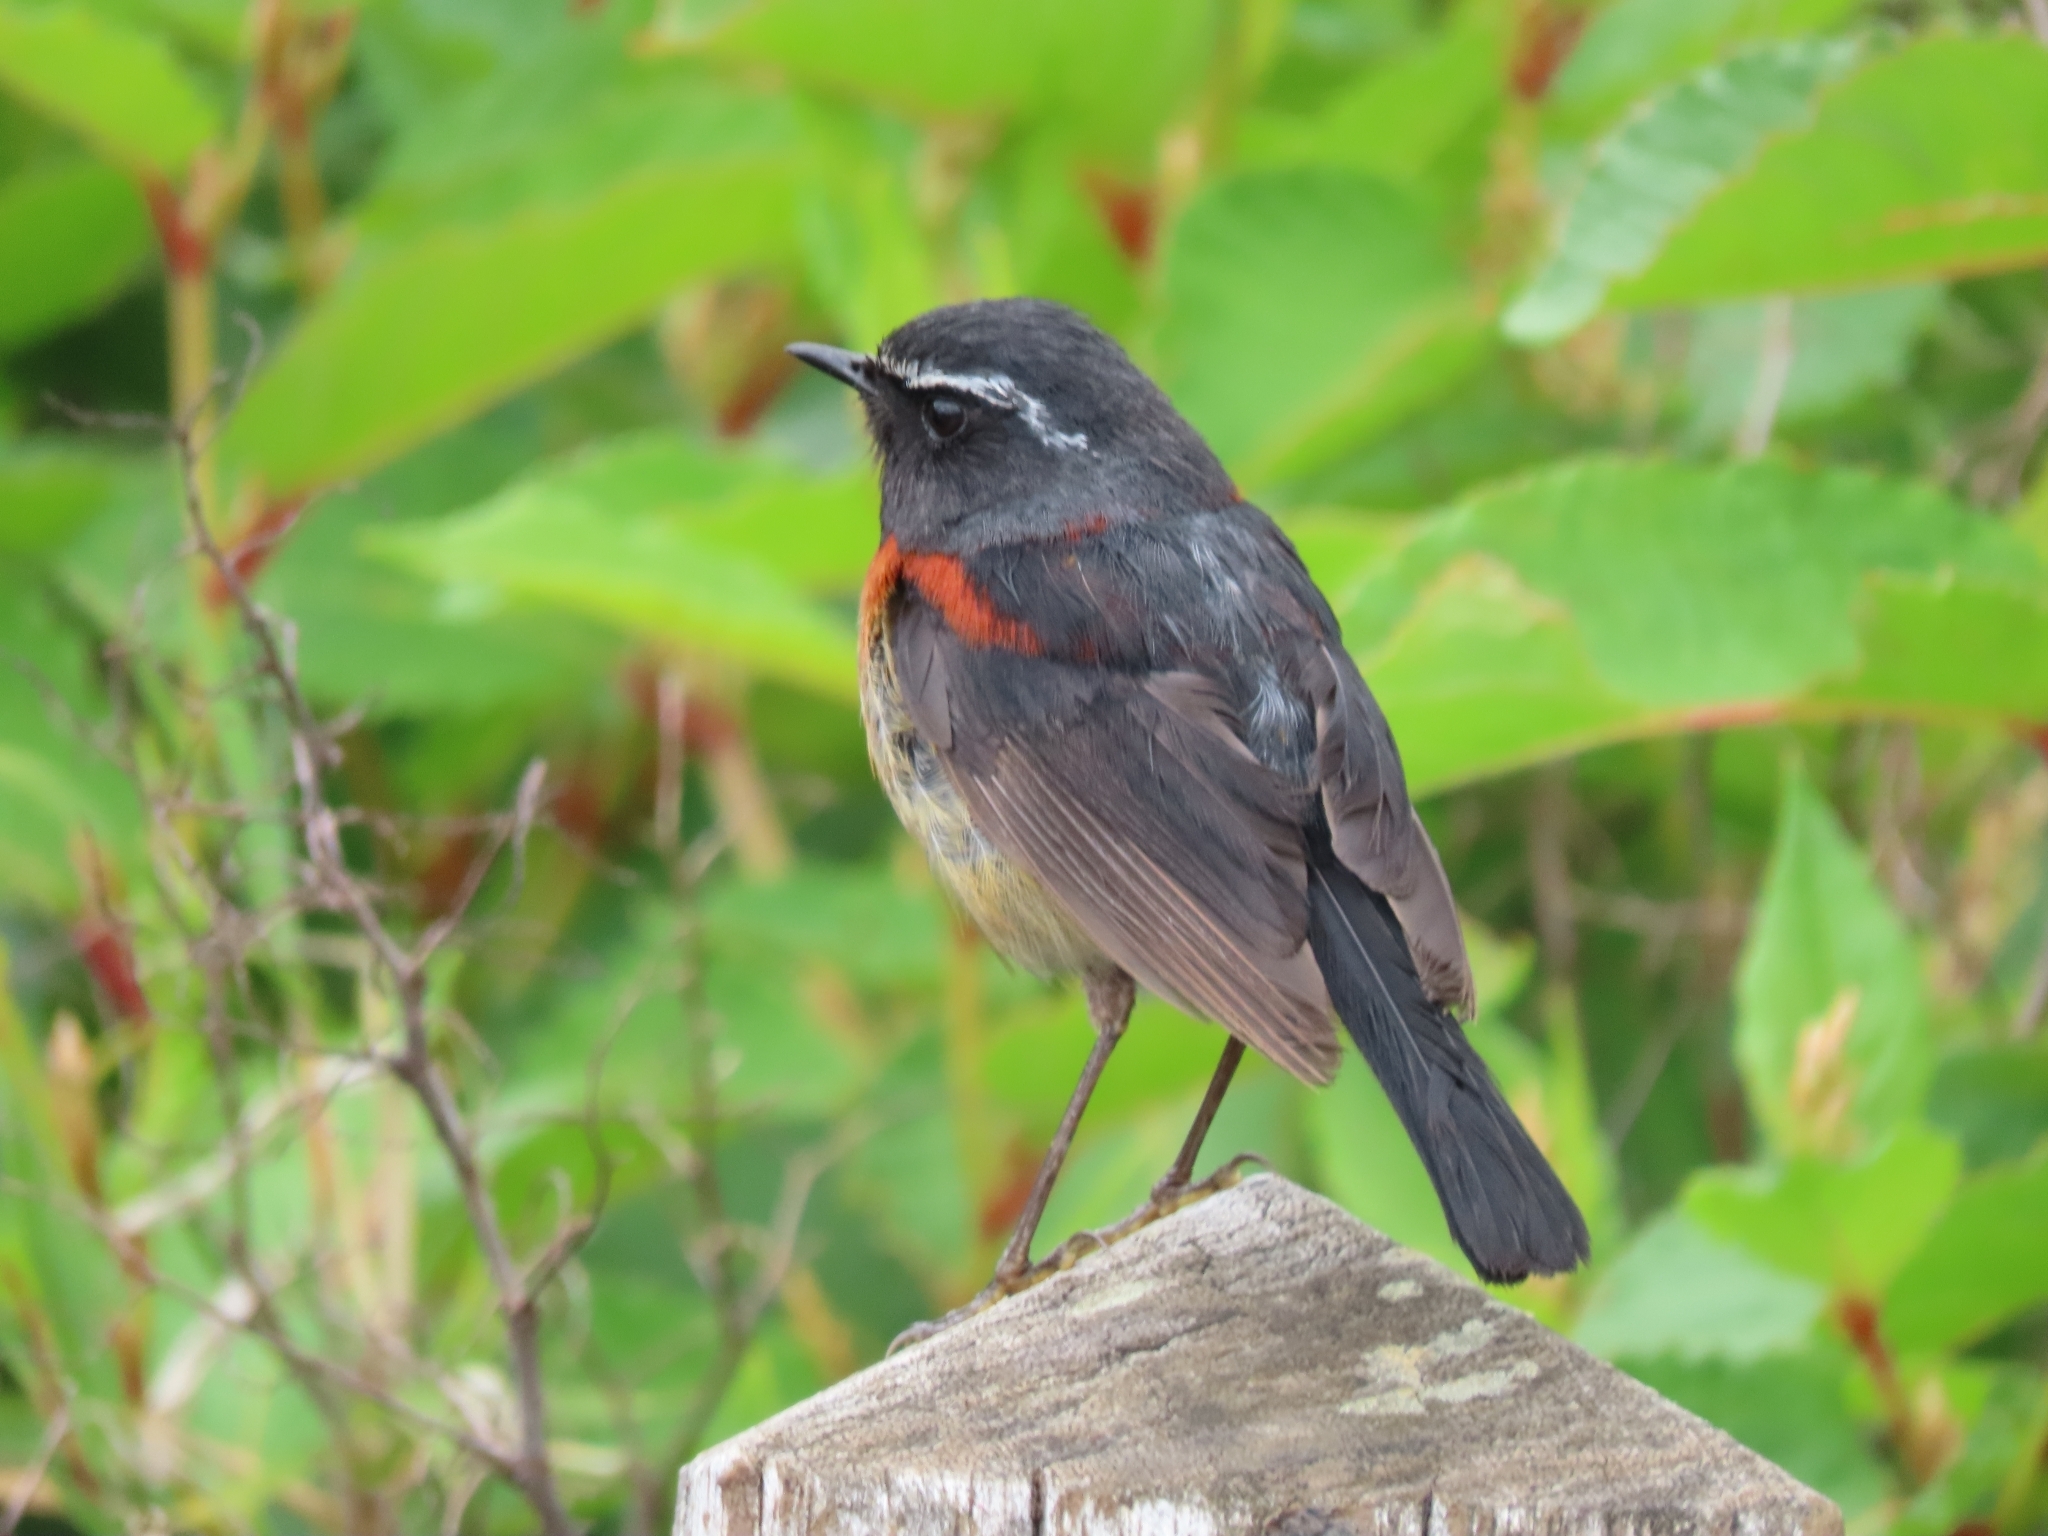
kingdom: Animalia
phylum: Chordata
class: Aves
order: Passeriformes
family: Muscicapidae
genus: Tarsiger
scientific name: Tarsiger johnstoniae
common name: Collared bush robin
